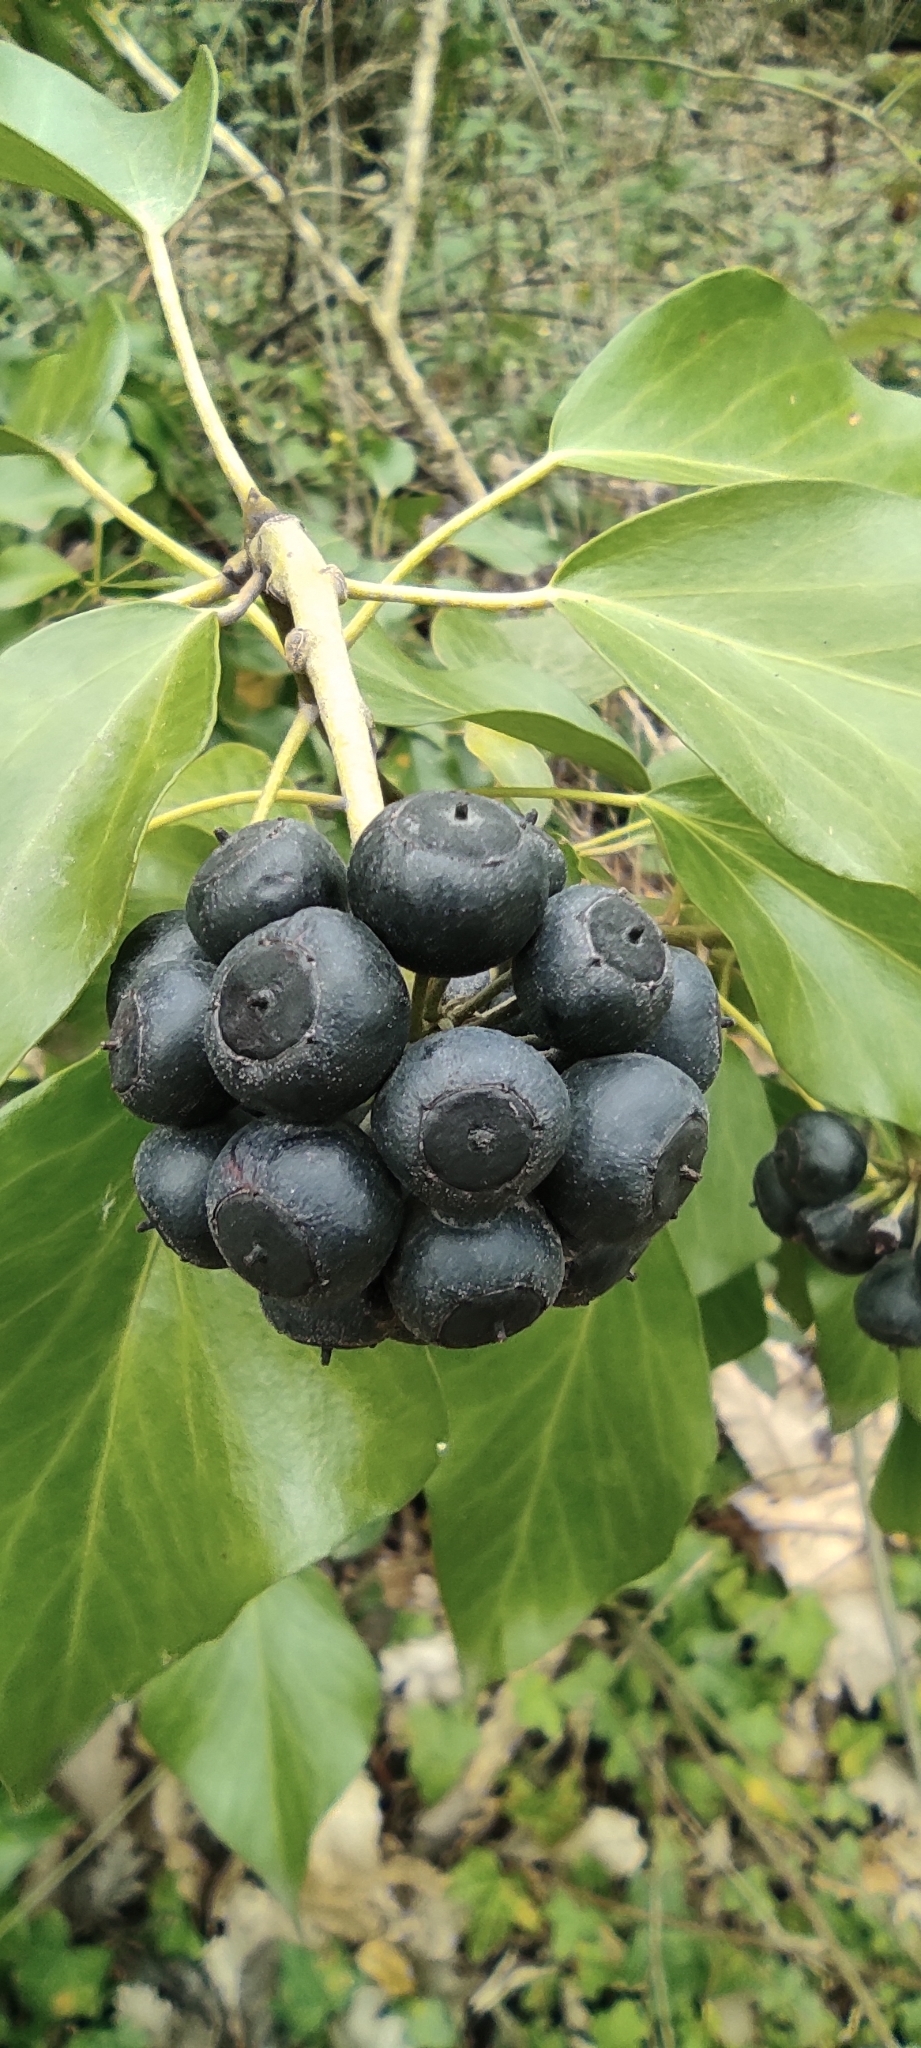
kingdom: Plantae
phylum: Tracheophyta
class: Magnoliopsida
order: Apiales
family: Araliaceae
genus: Hedera
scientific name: Hedera helix
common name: Ivy
